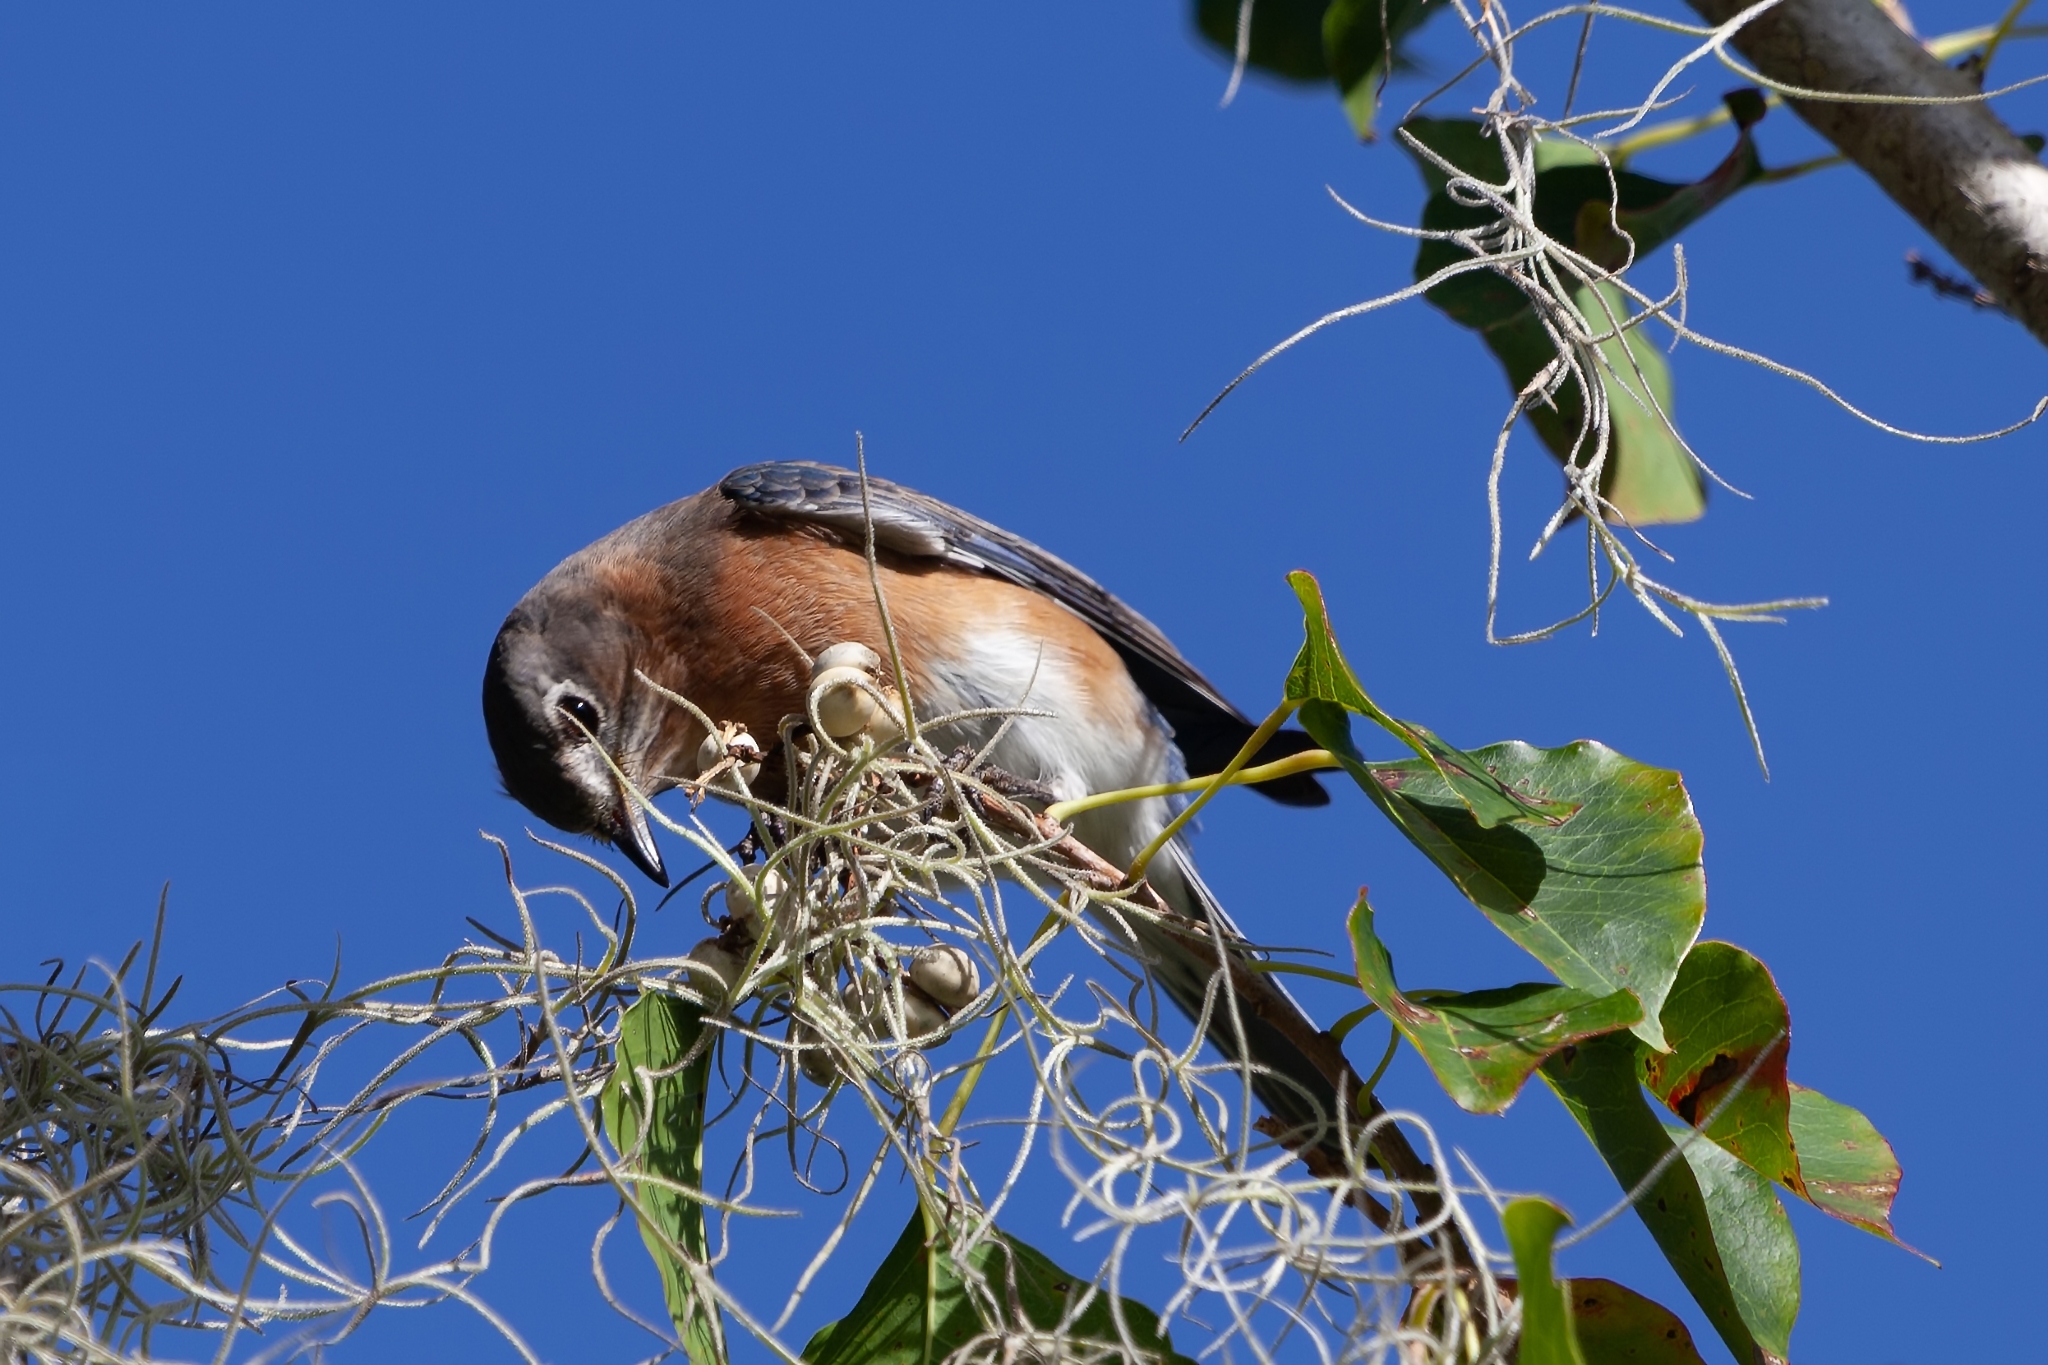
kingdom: Animalia
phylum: Chordata
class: Aves
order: Passeriformes
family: Turdidae
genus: Sialia
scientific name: Sialia sialis
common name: Eastern bluebird
